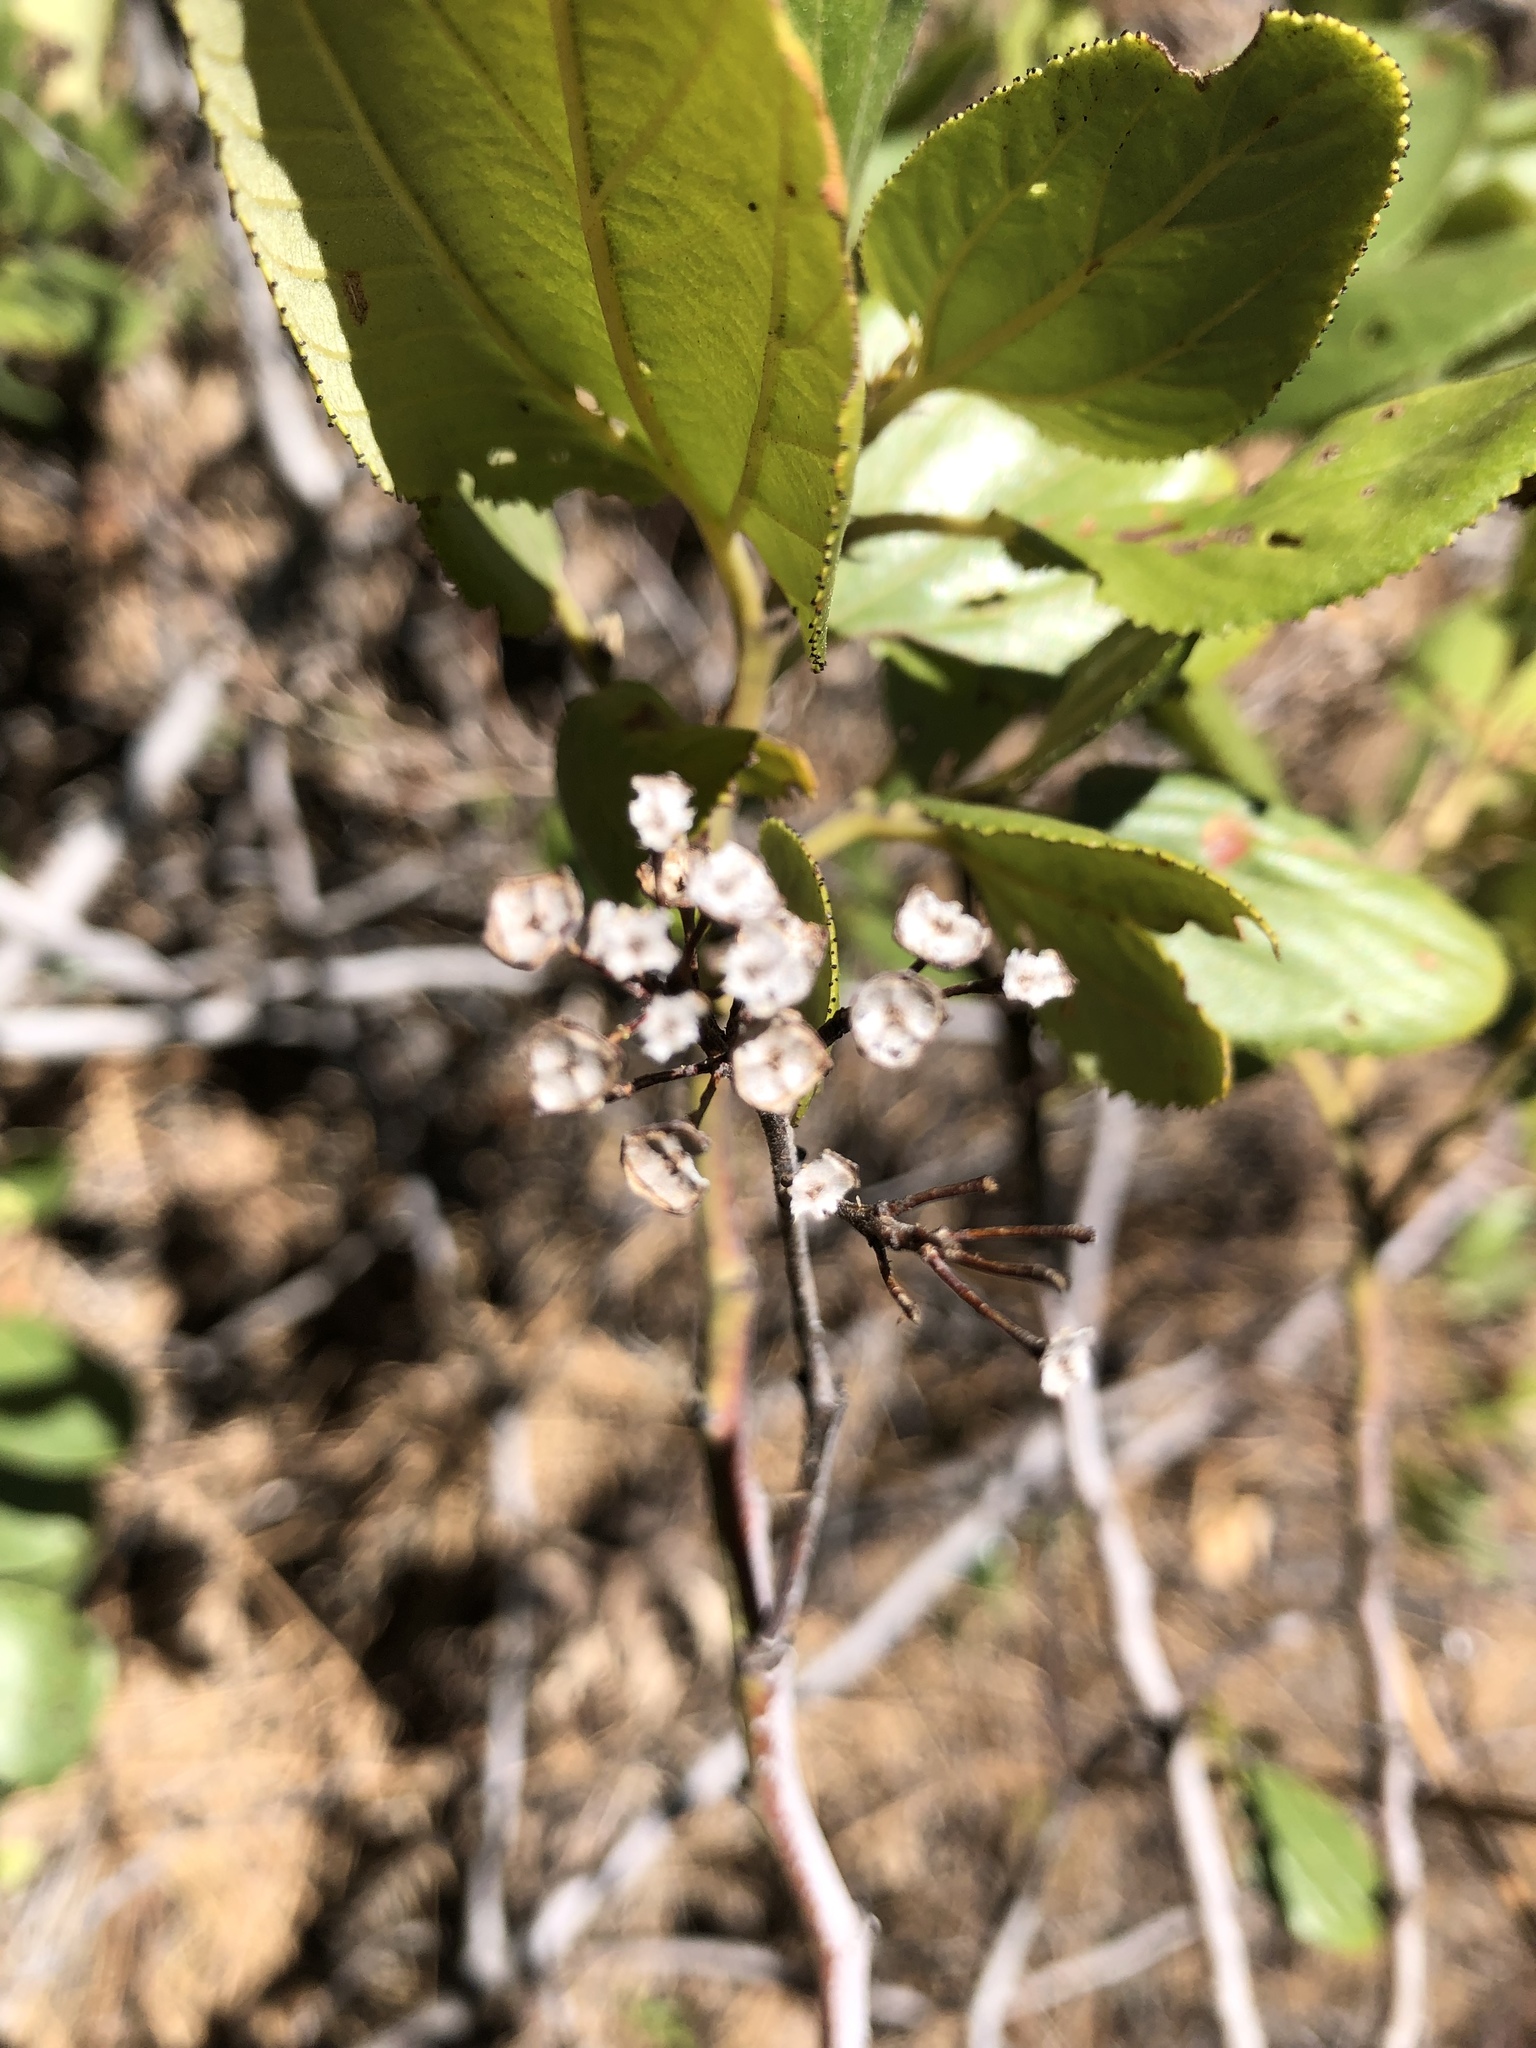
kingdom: Plantae
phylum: Tracheophyta
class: Magnoliopsida
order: Rosales
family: Rhamnaceae
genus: Ceanothus
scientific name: Ceanothus velutinus
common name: Snowbrush
